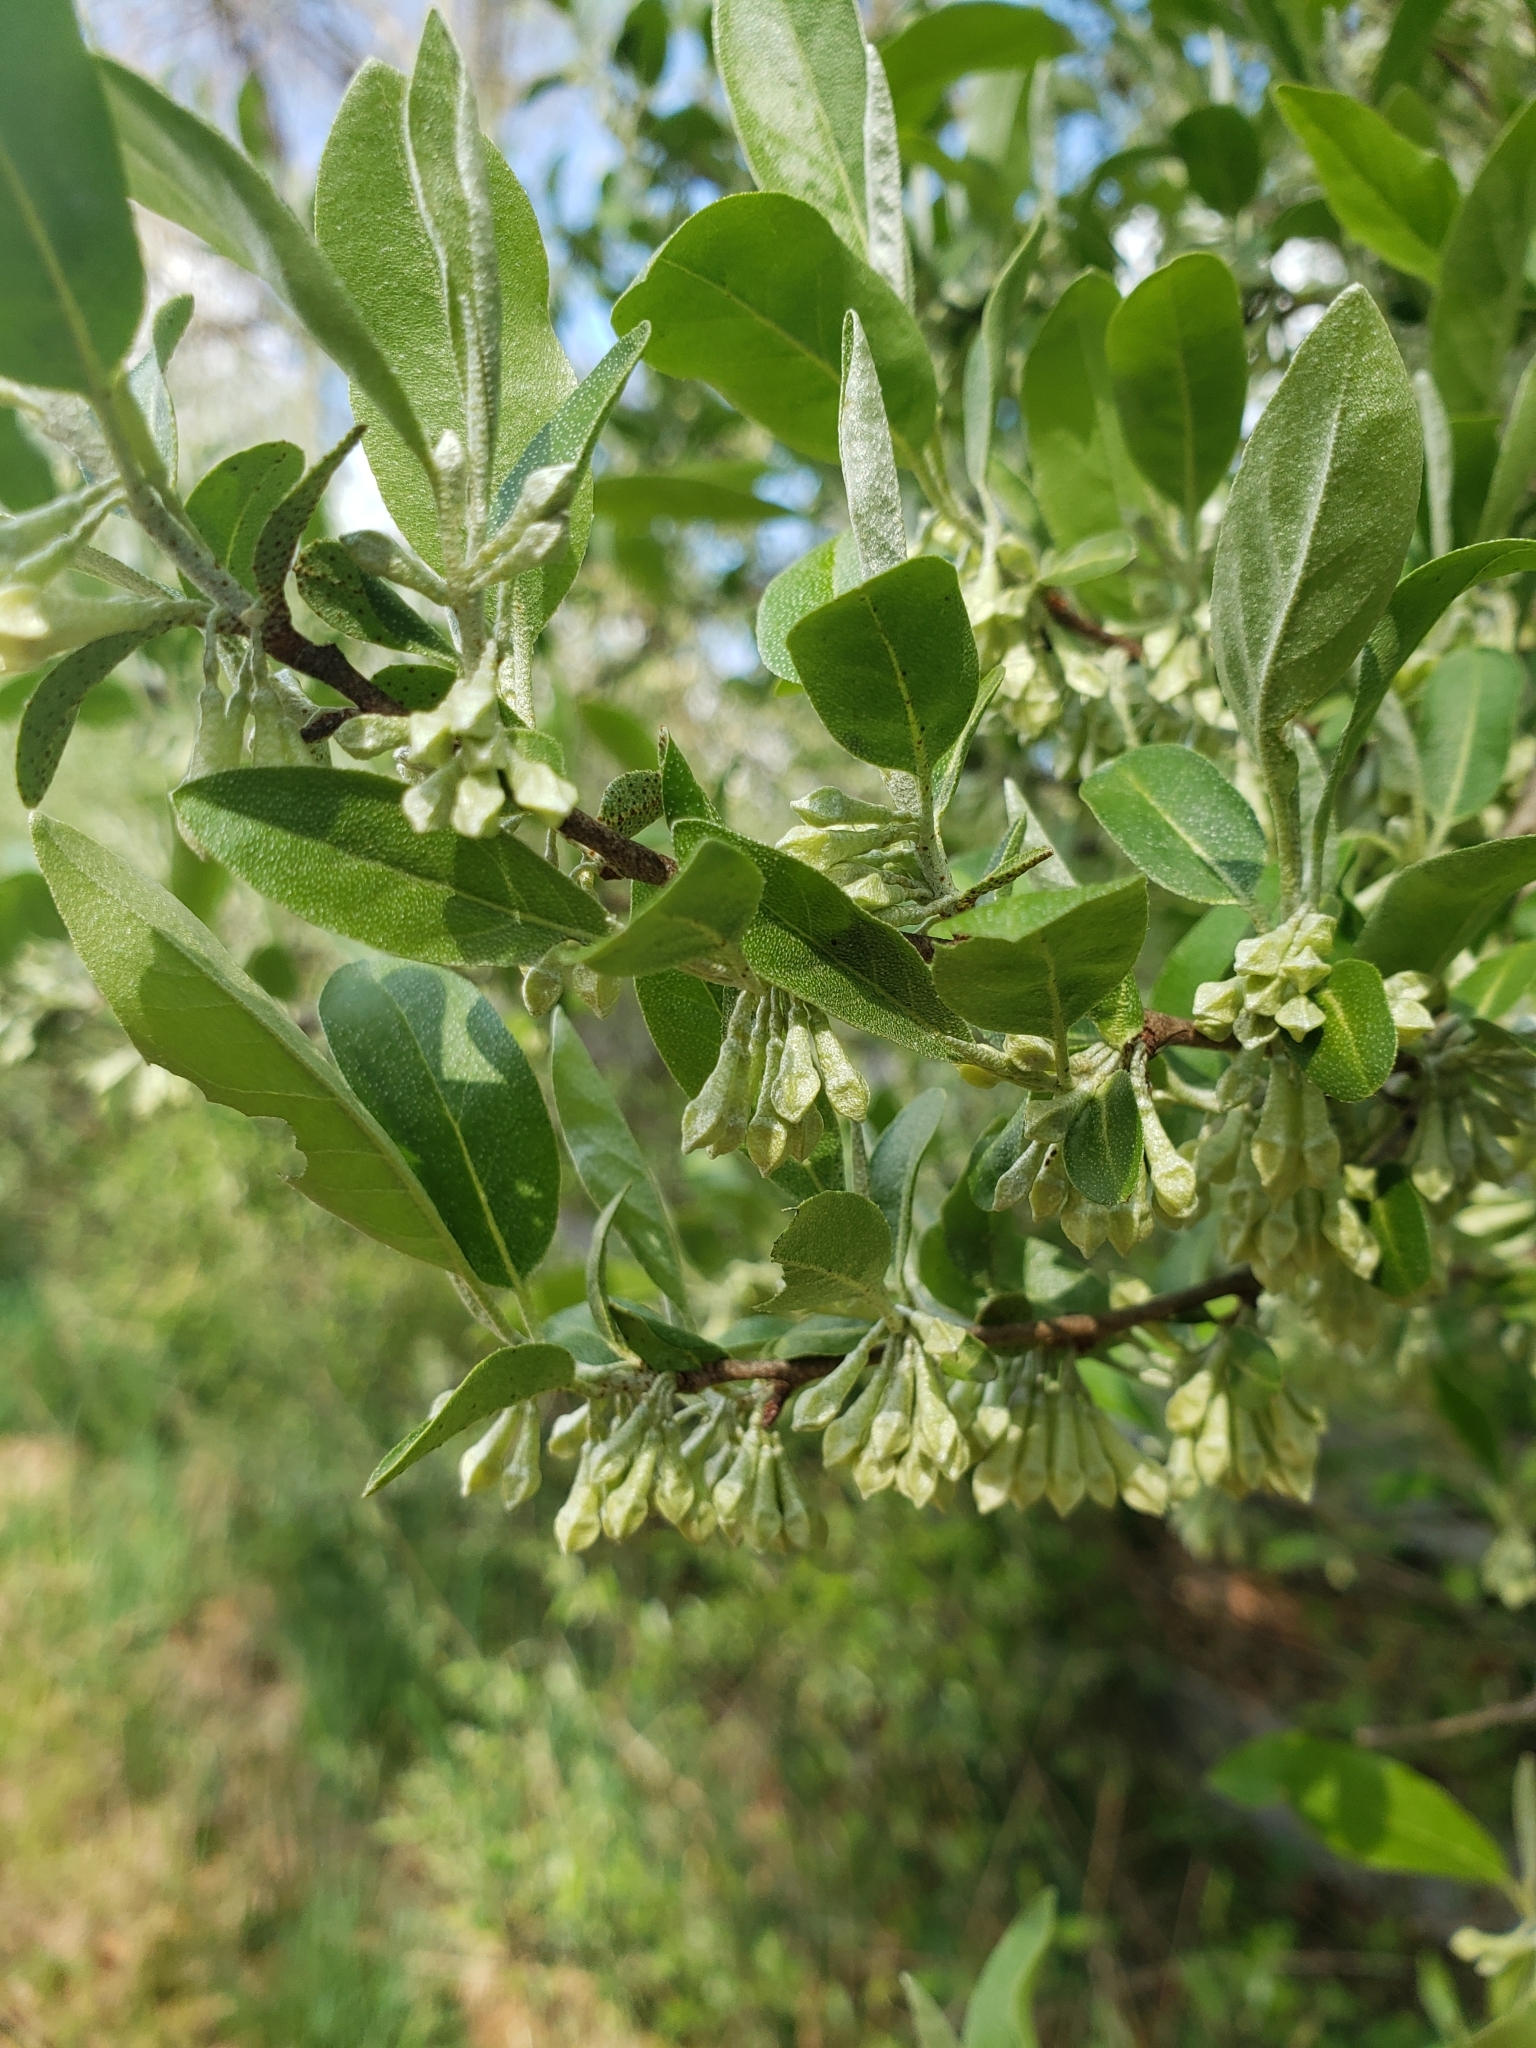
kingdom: Plantae
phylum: Tracheophyta
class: Magnoliopsida
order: Rosales
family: Elaeagnaceae
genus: Elaeagnus
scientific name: Elaeagnus umbellata
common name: Autumn olive
